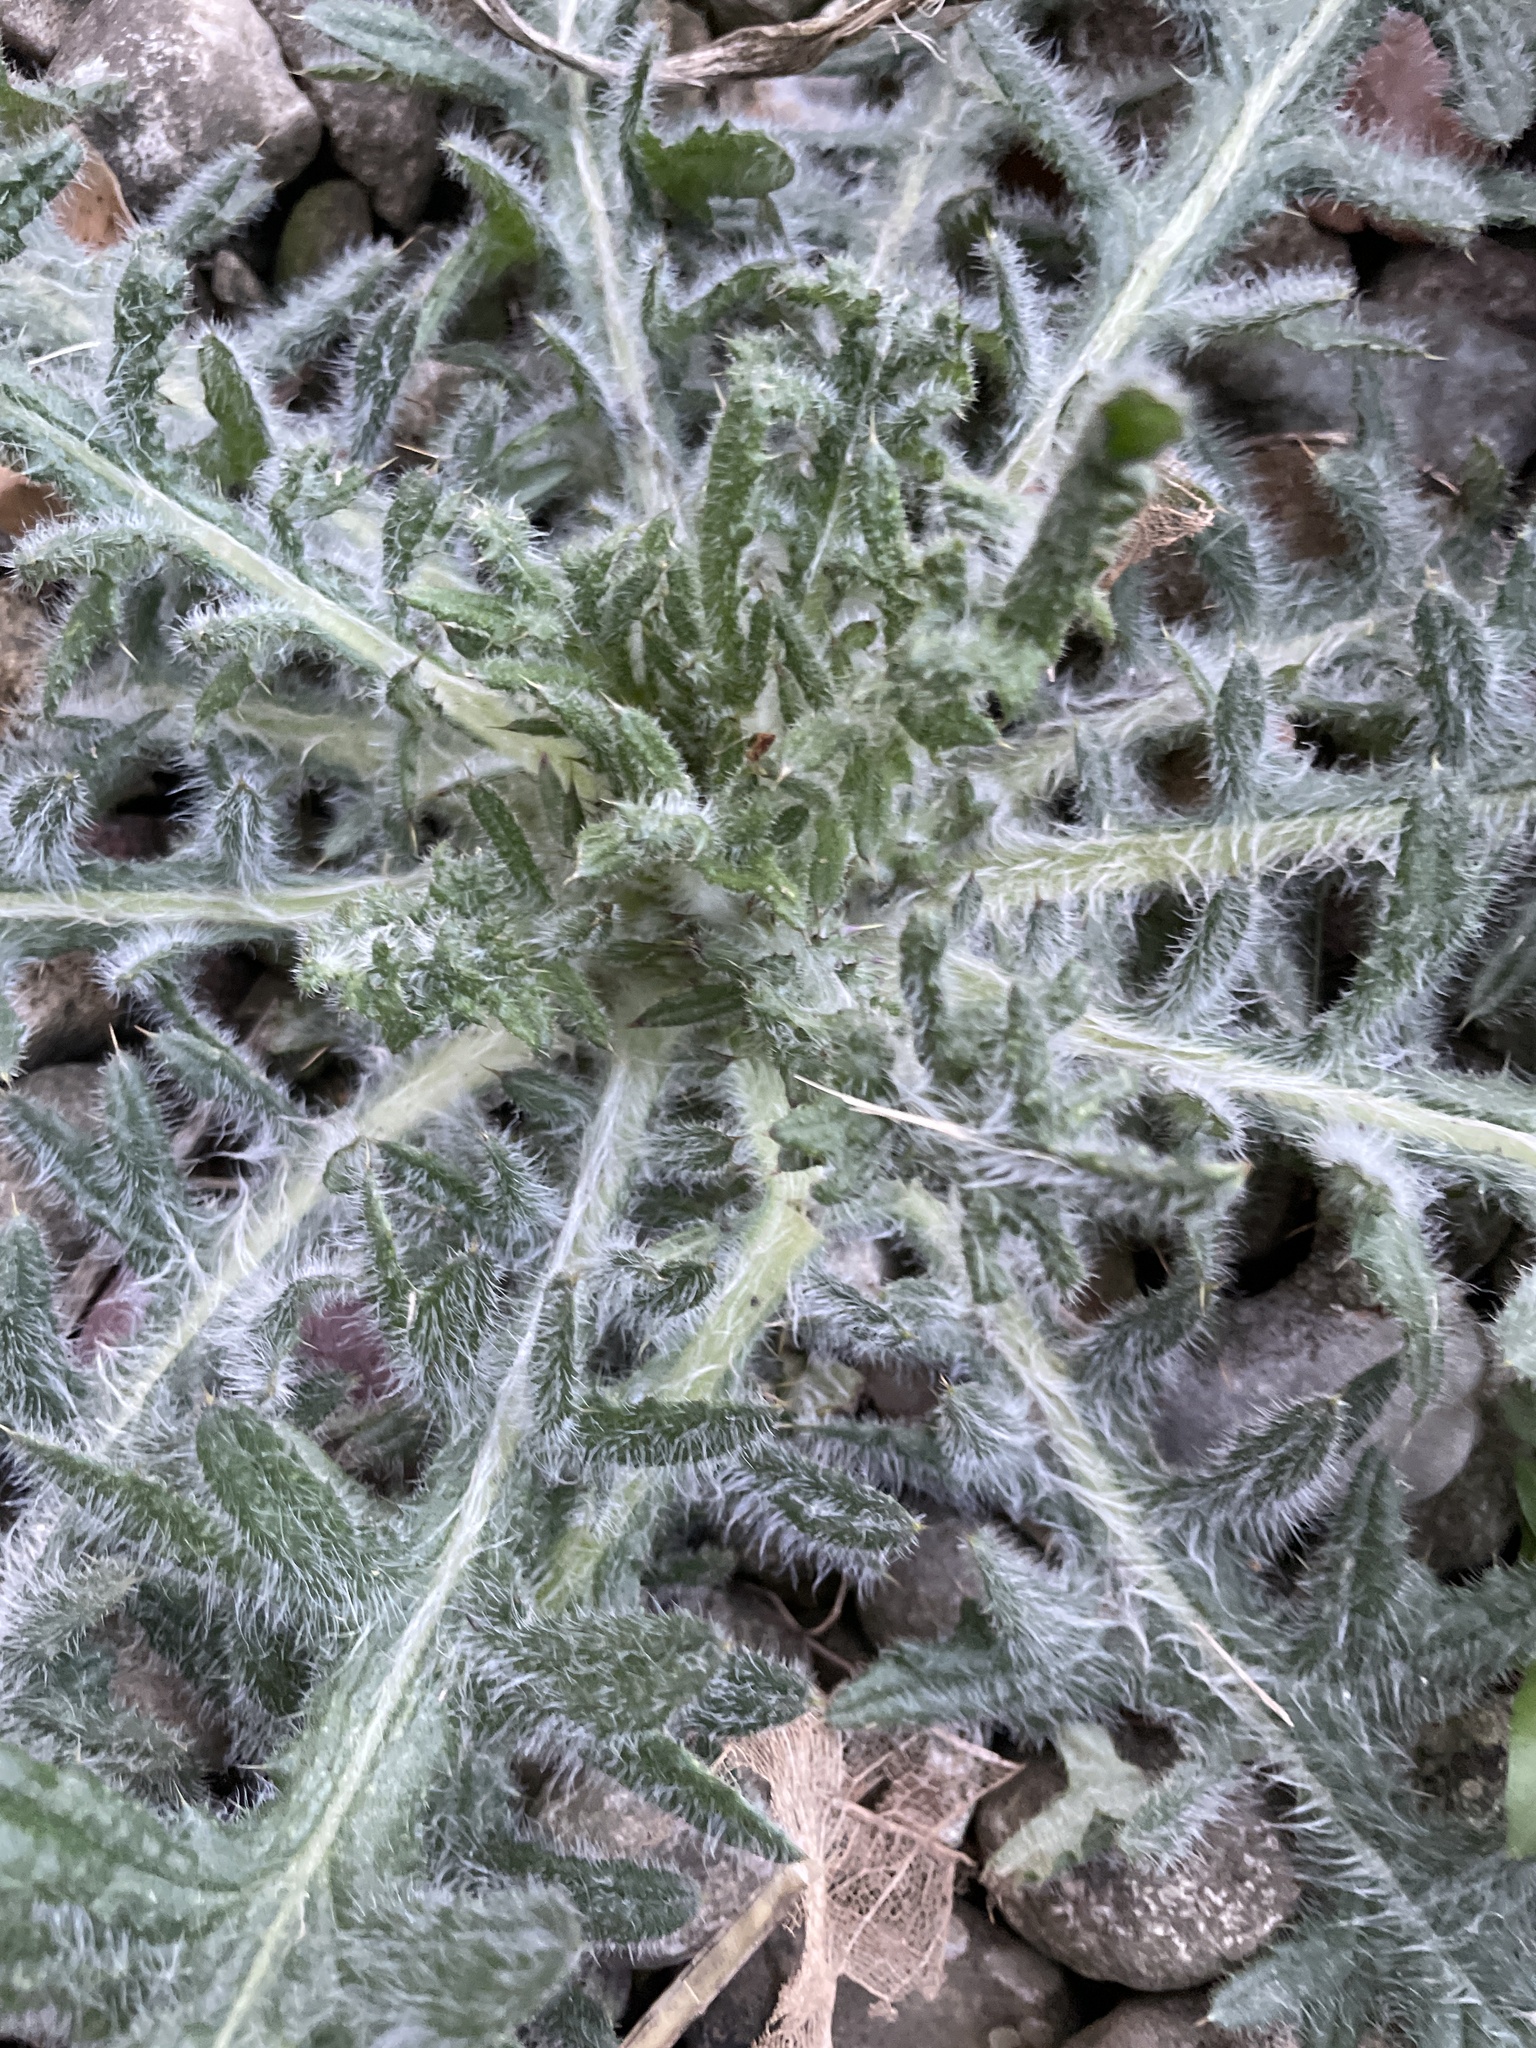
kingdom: Plantae
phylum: Tracheophyta
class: Magnoliopsida
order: Asterales
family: Asteraceae
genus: Cirsium
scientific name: Cirsium vulgare
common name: Bull thistle
